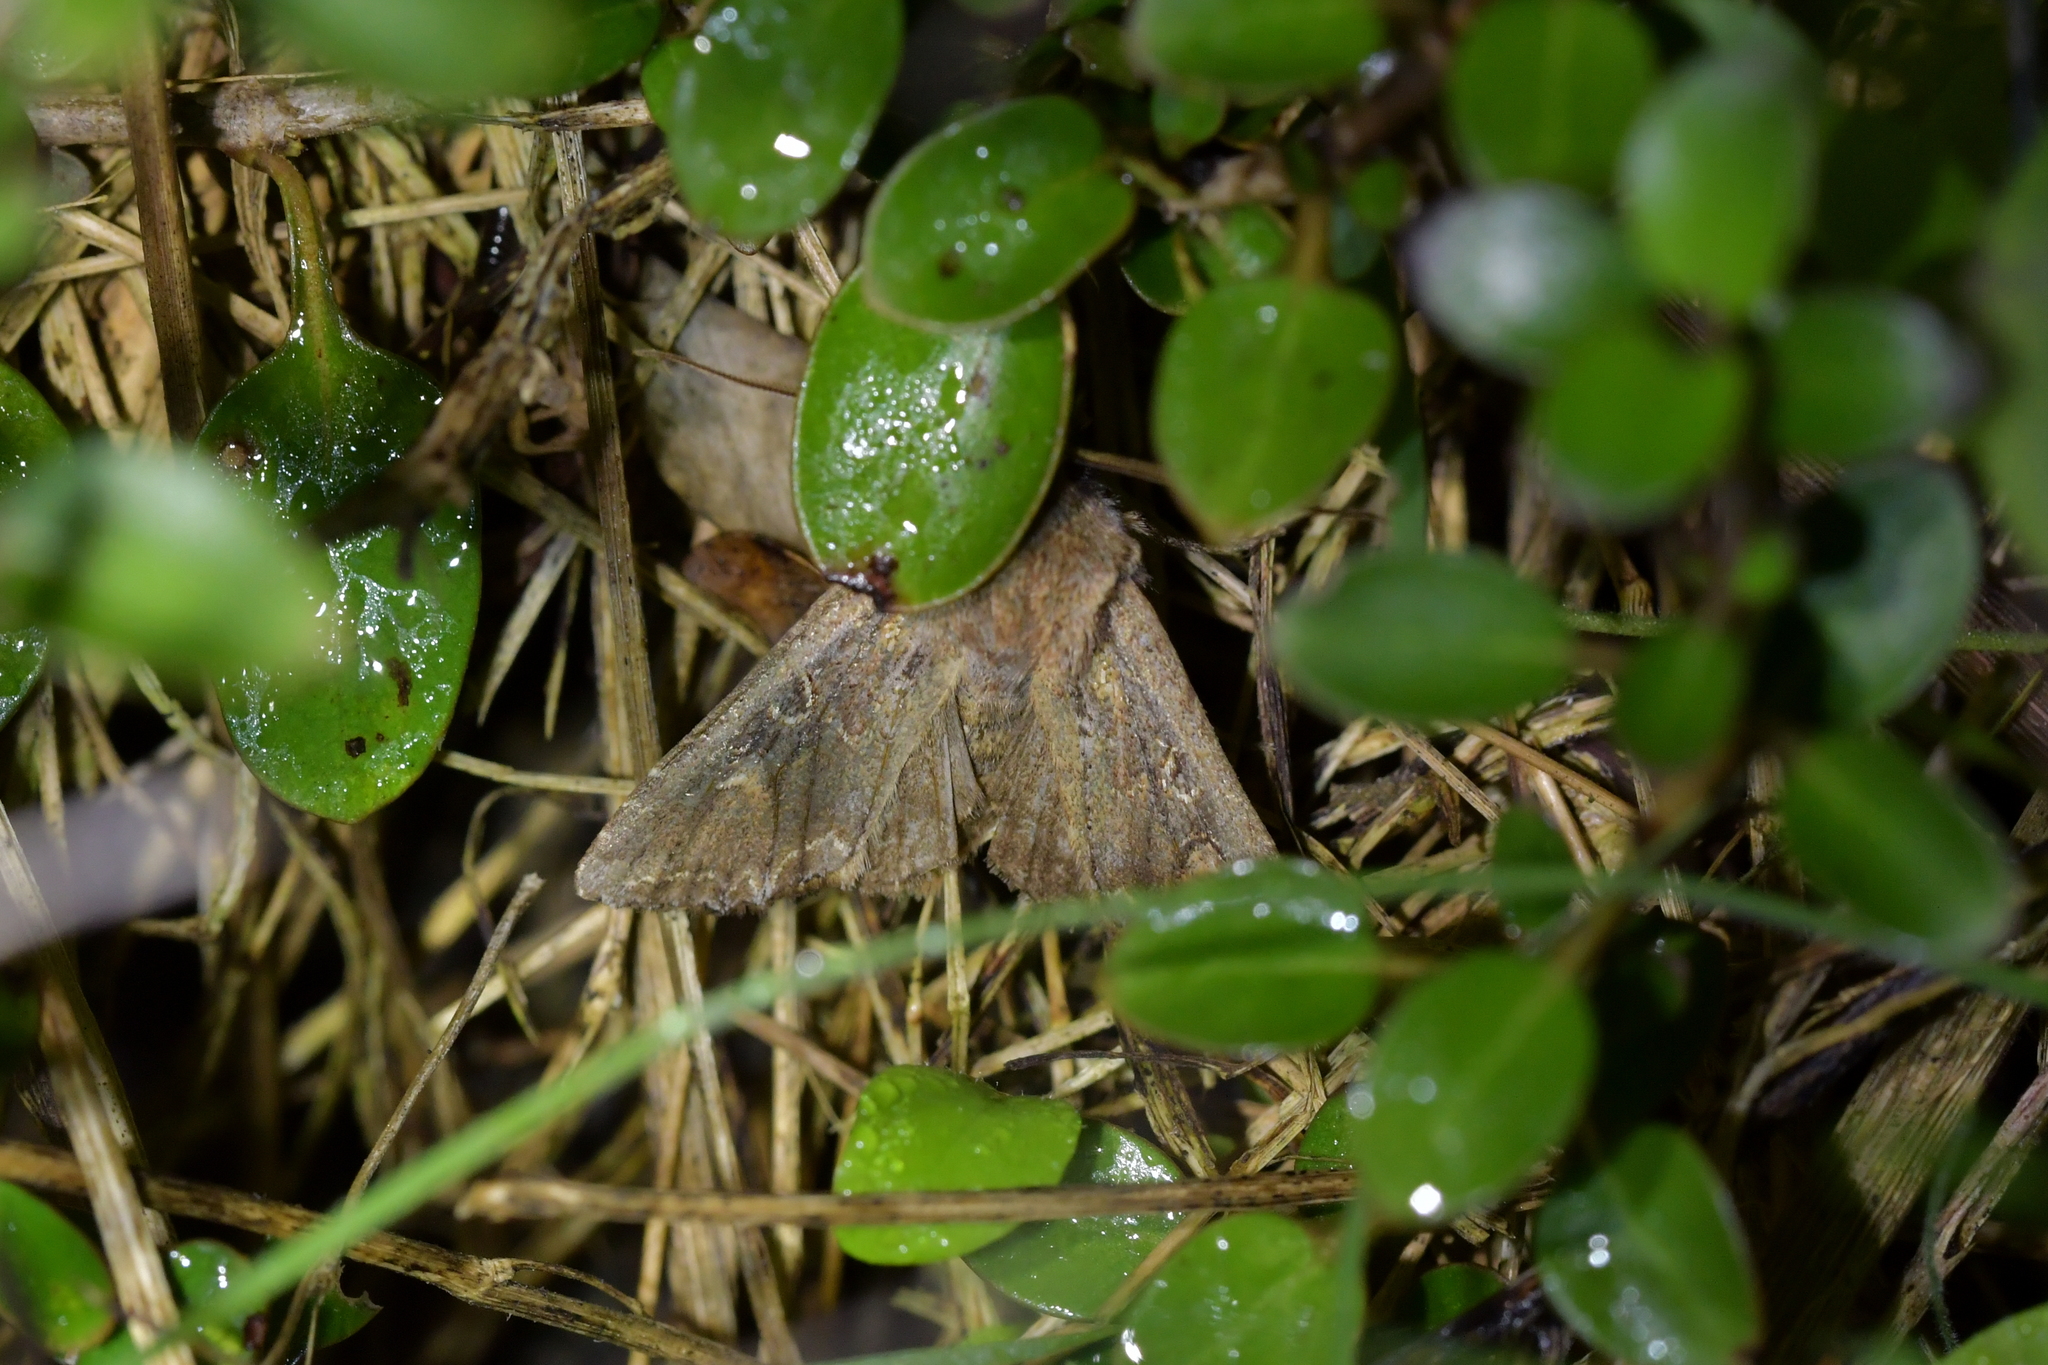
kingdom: Animalia
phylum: Arthropoda
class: Insecta
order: Lepidoptera
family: Noctuidae
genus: Ichneutica
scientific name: Ichneutica
